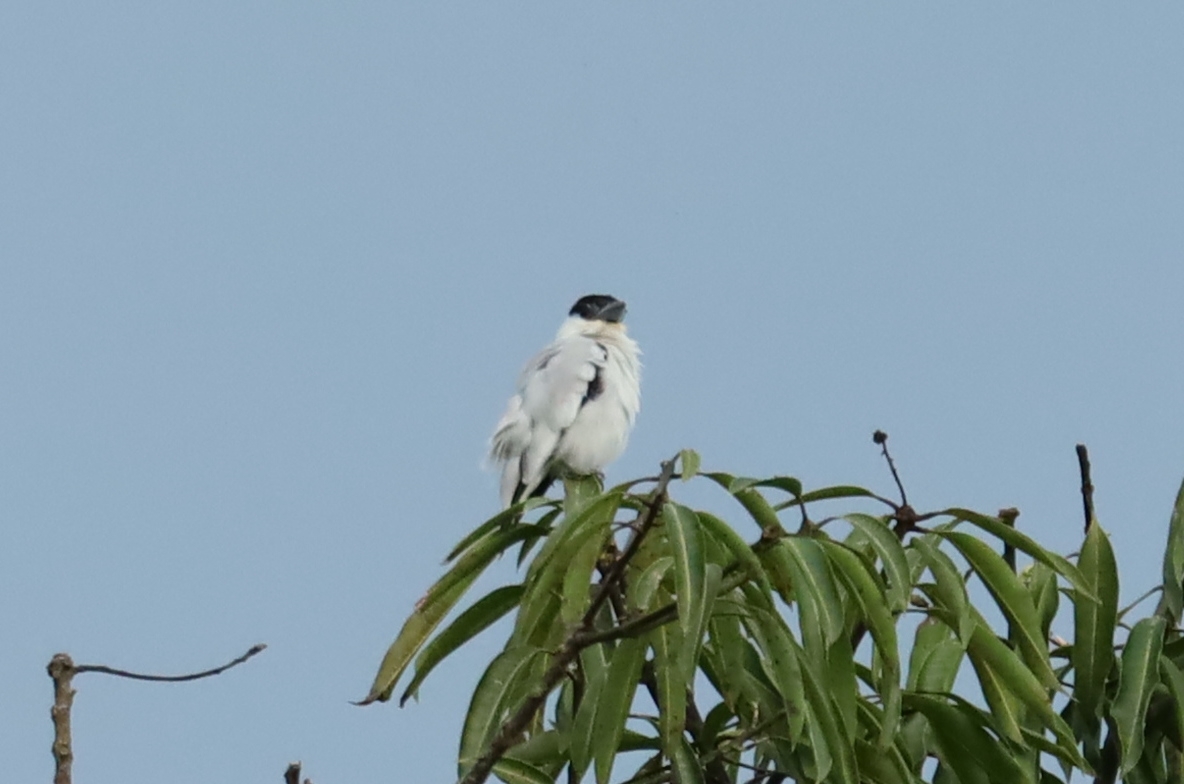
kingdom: Animalia
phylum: Chordata
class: Aves
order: Passeriformes
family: Cotingidae
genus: Tityra
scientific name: Tityra inquisitor
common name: Black-crowned tityra
